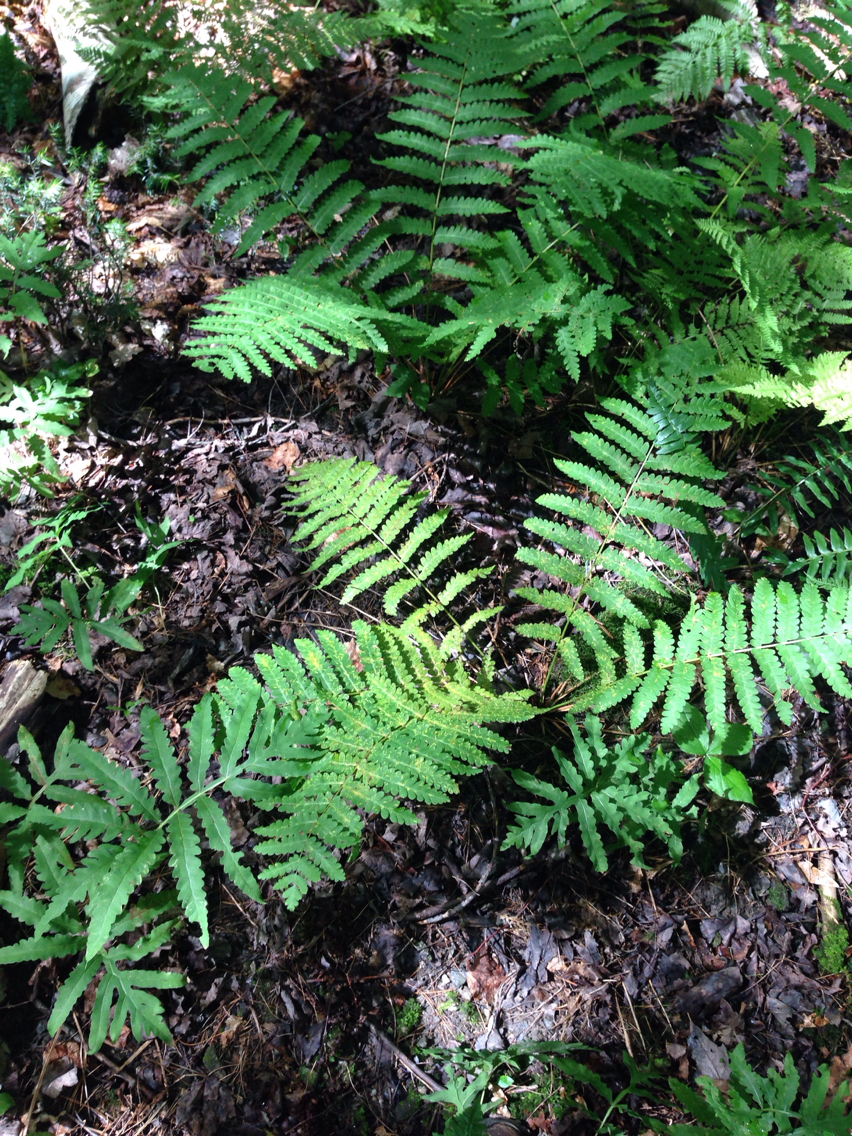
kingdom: Plantae
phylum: Tracheophyta
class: Polypodiopsida
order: Osmundales
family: Osmundaceae
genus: Claytosmunda
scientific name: Claytosmunda claytoniana
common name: Clayton's fern
